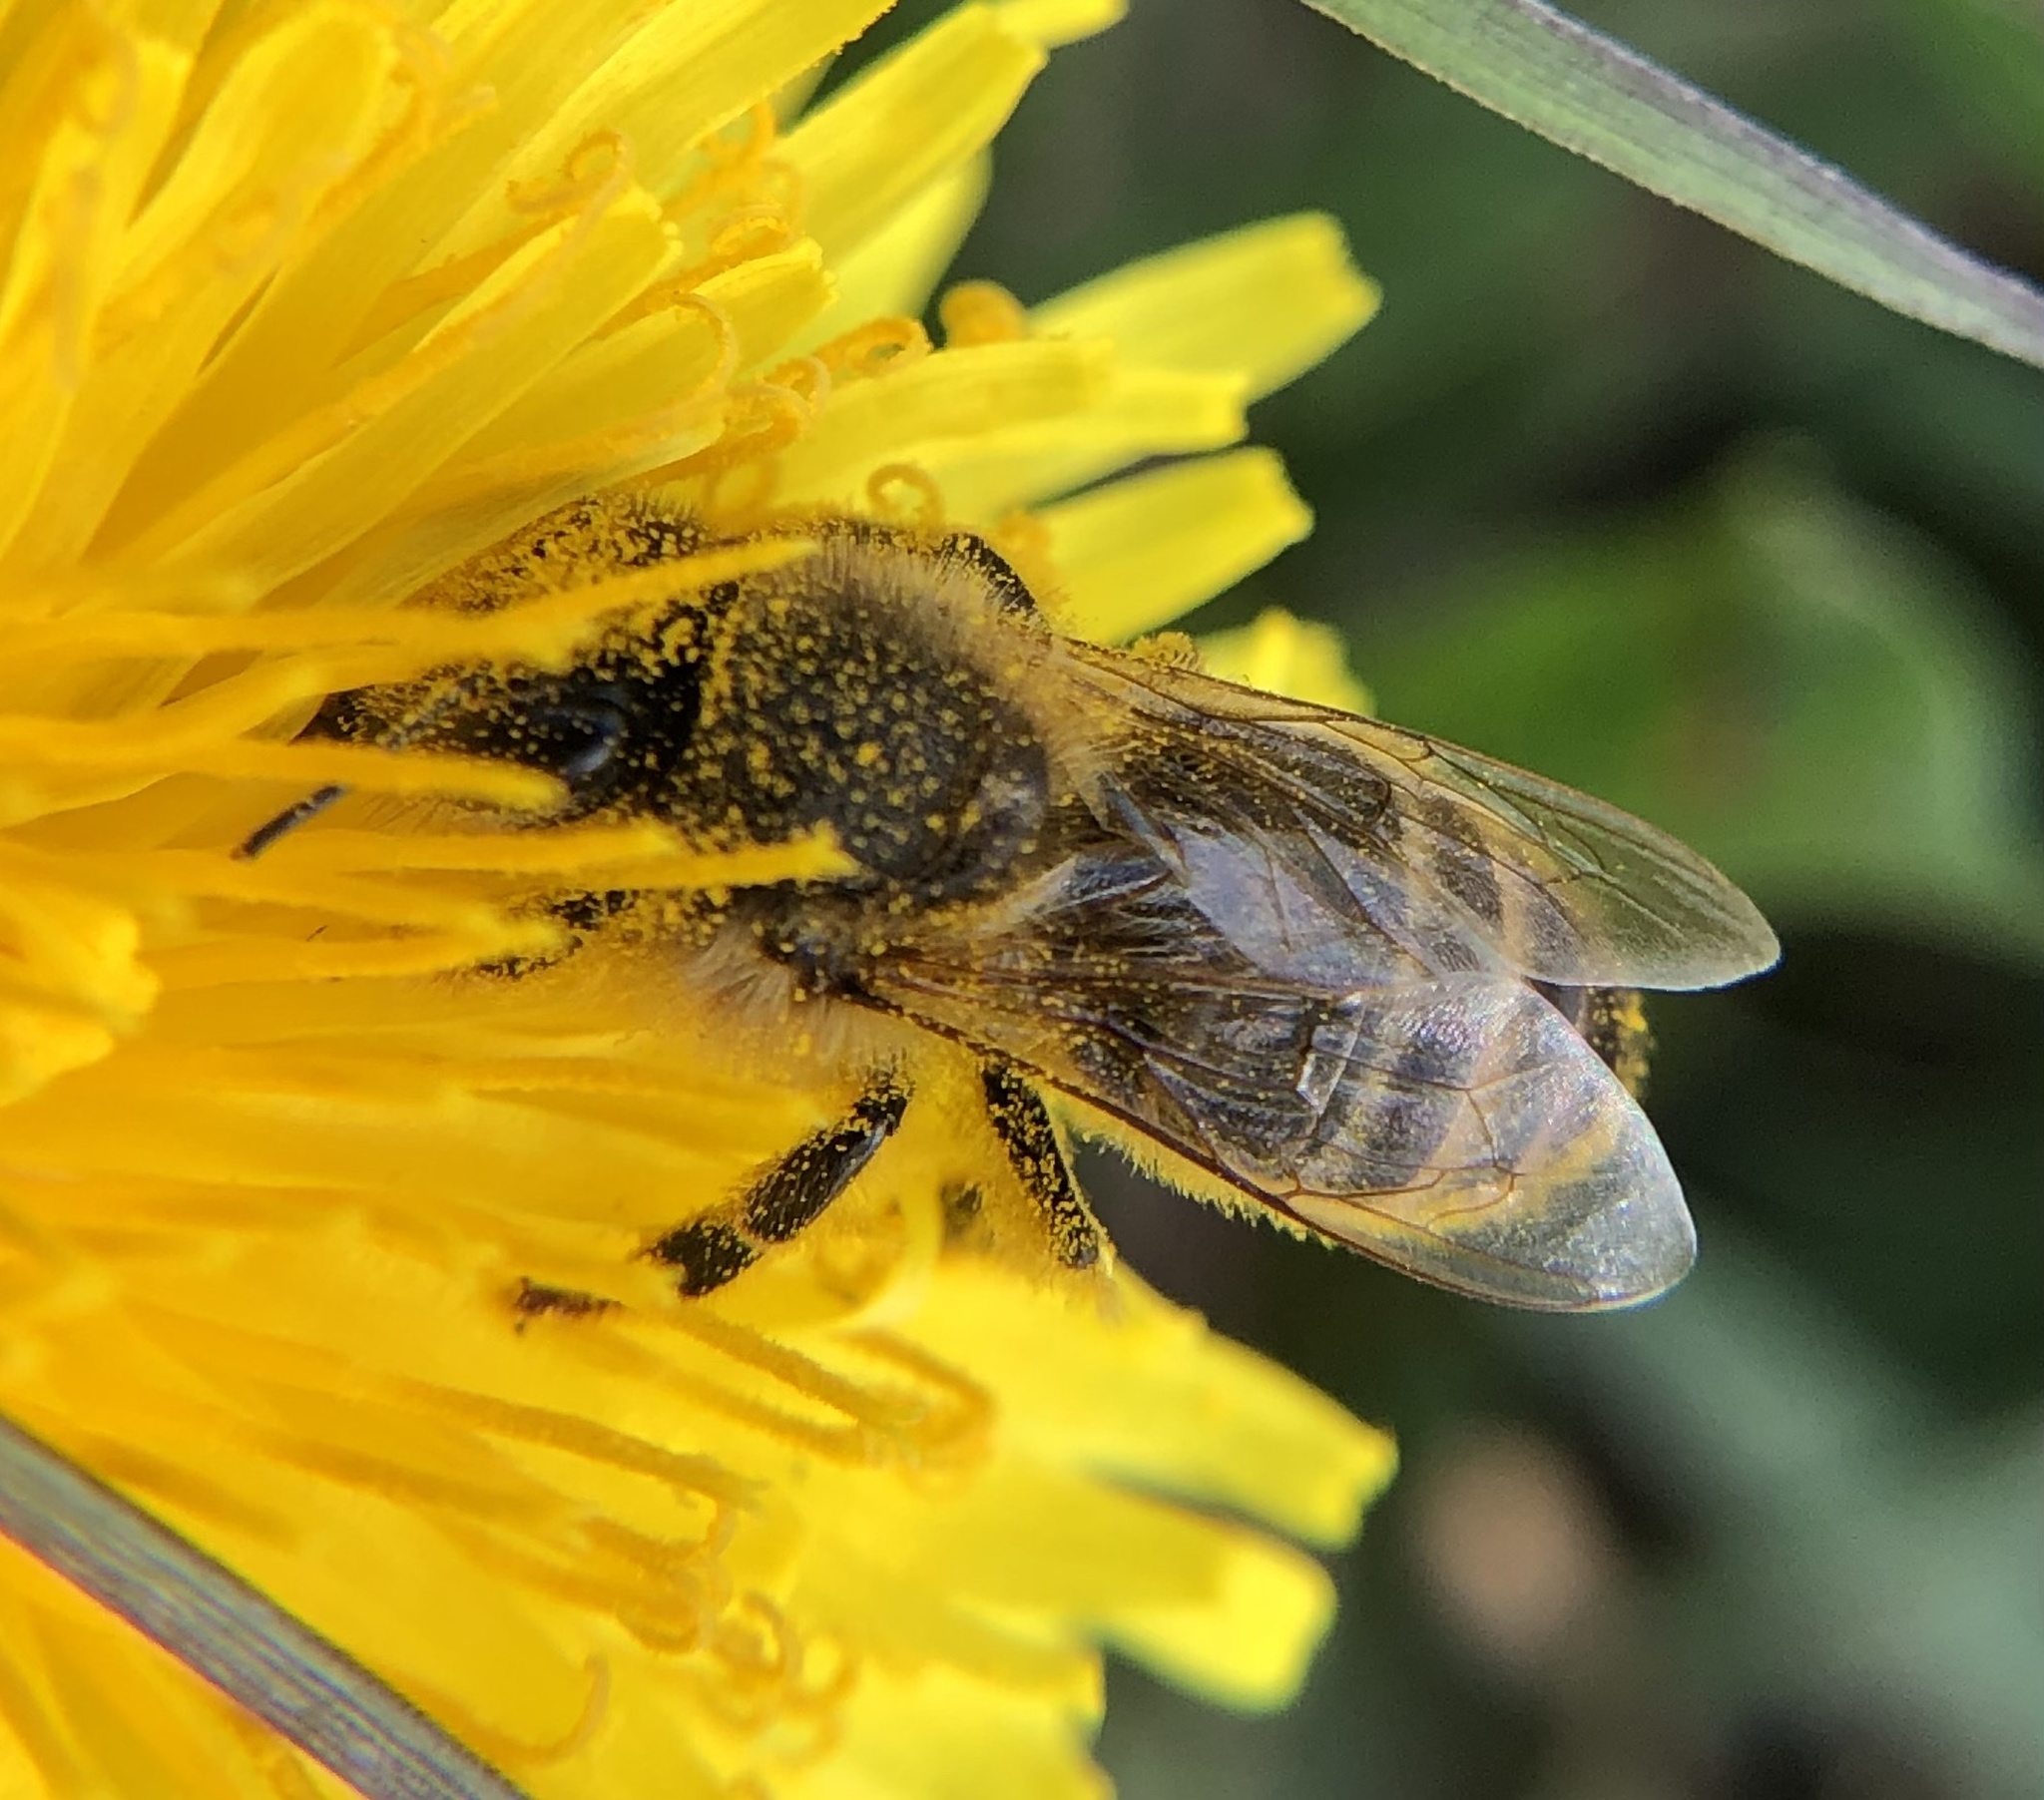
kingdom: Animalia
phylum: Arthropoda
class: Insecta
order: Hymenoptera
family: Apidae
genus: Apis
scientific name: Apis mellifera
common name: Honey bee
